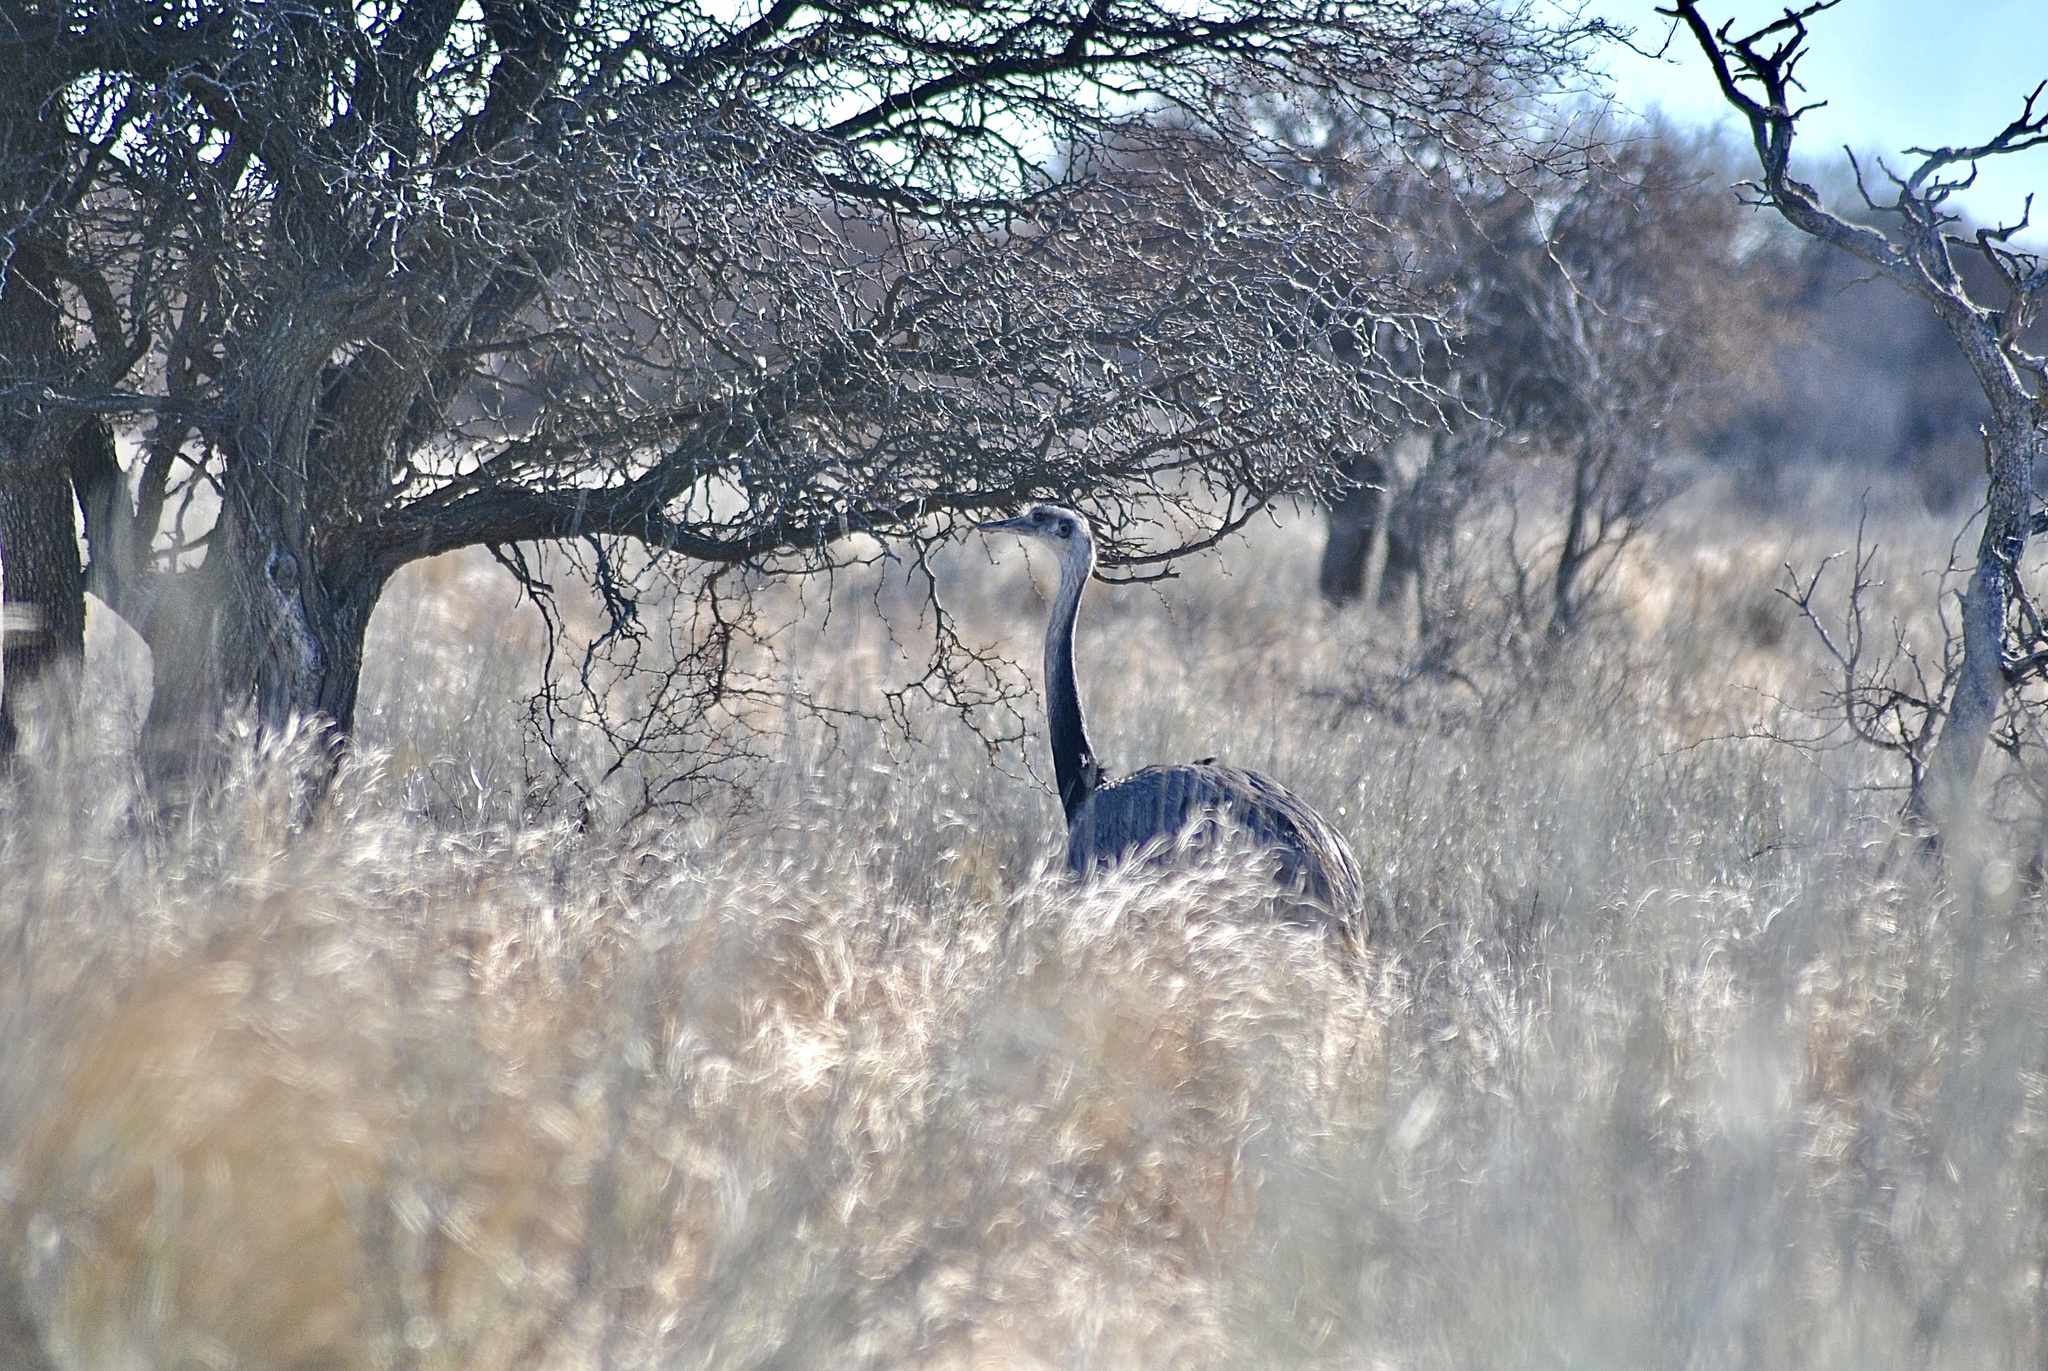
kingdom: Animalia
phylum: Chordata
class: Aves
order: Rheiformes
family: Rheidae
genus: Rhea
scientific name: Rhea americana
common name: Greater rhea
